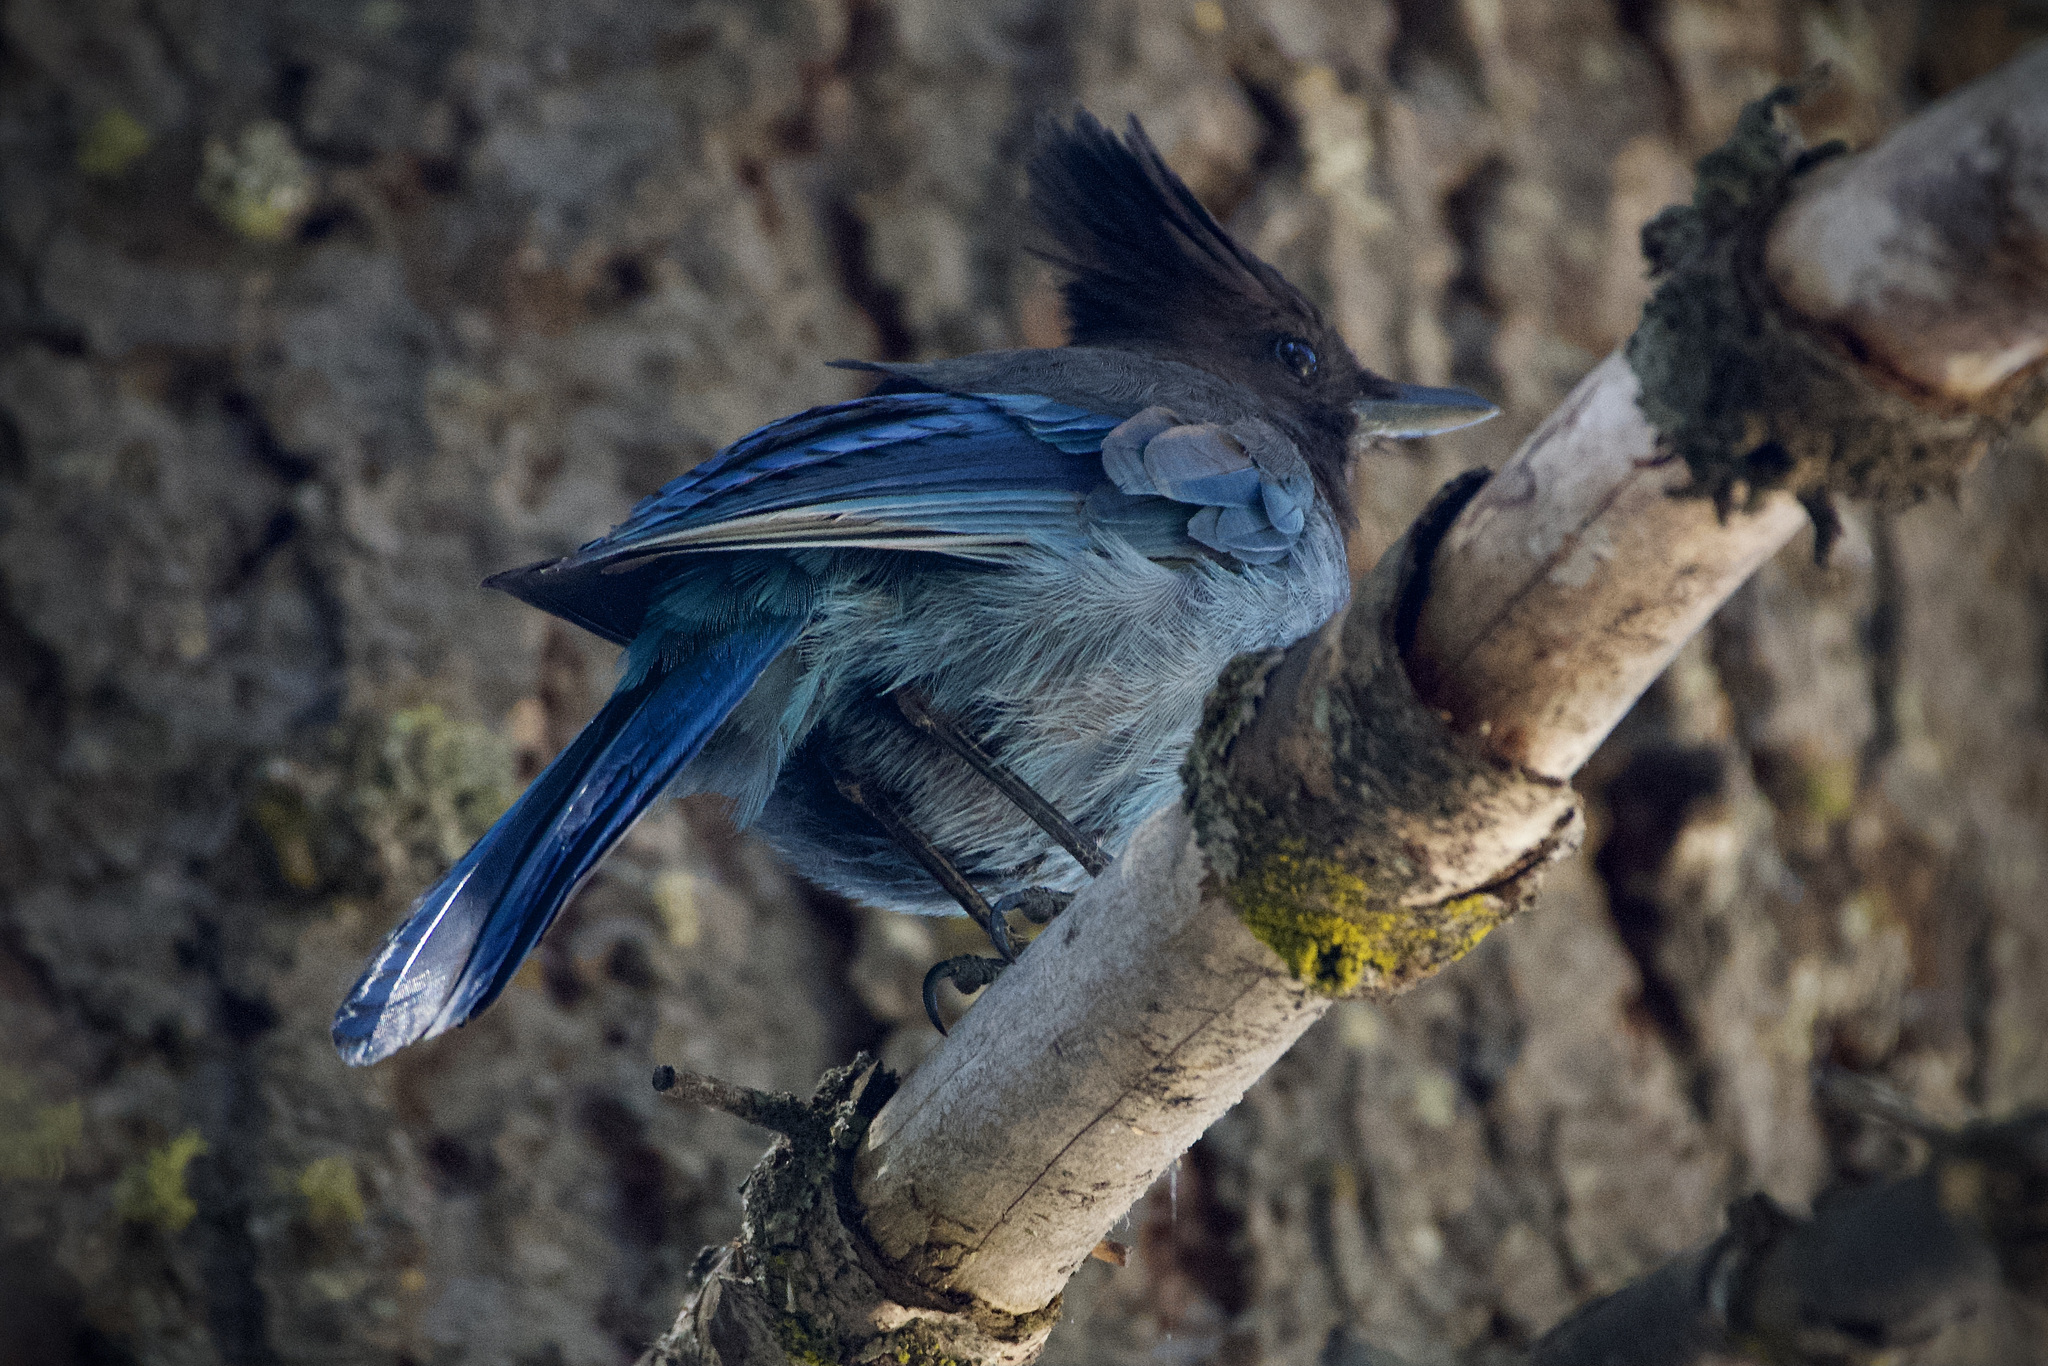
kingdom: Animalia
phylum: Chordata
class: Aves
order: Passeriformes
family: Corvidae
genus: Cyanocitta
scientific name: Cyanocitta stelleri
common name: Steller's jay
